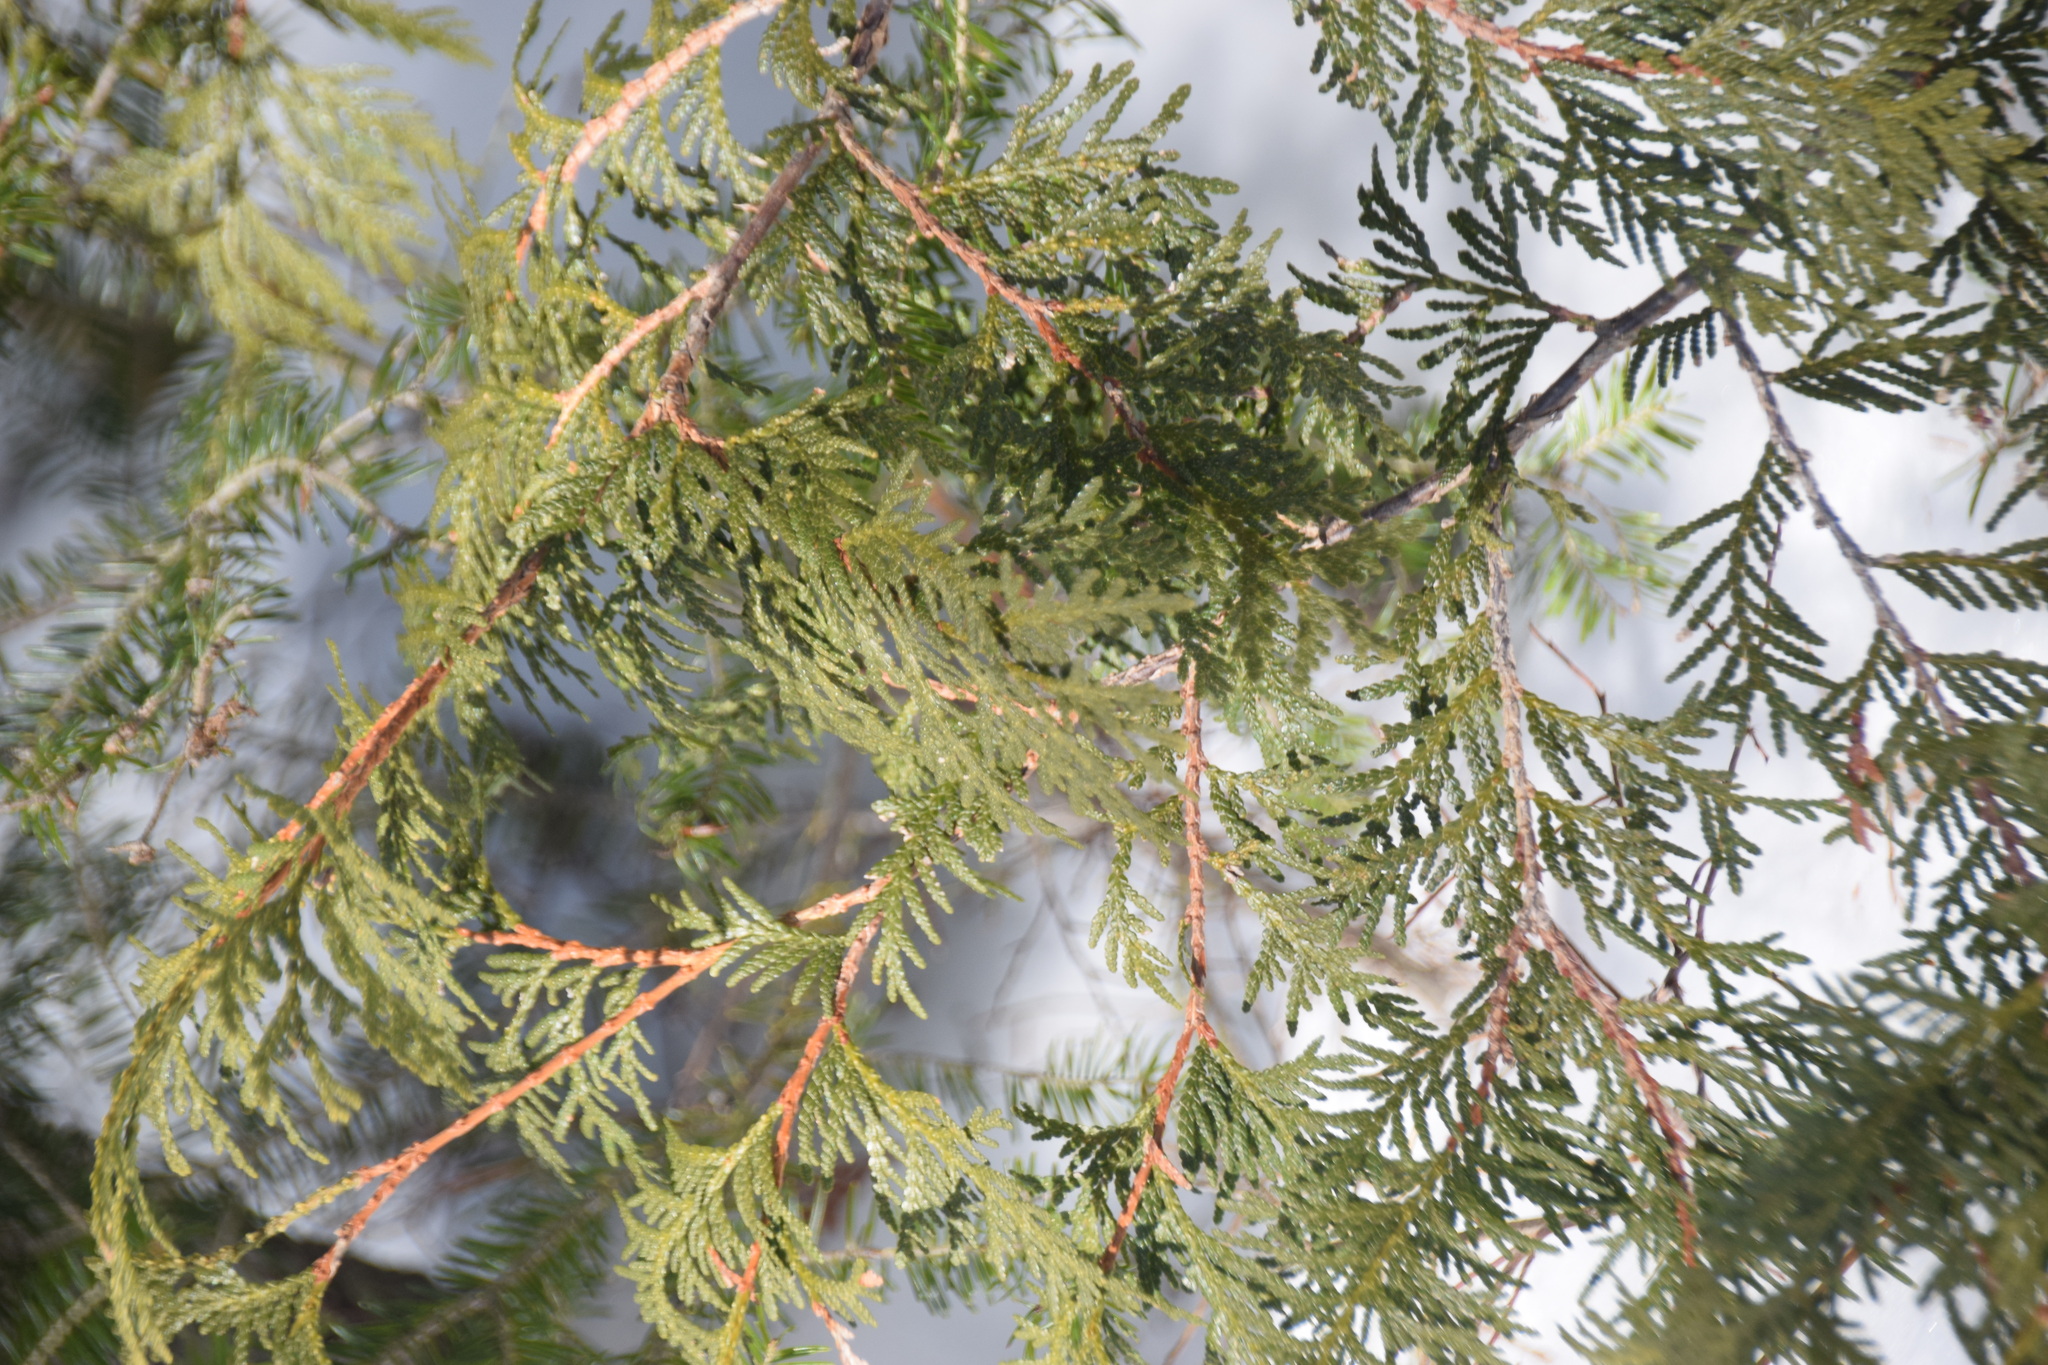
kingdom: Plantae
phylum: Tracheophyta
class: Pinopsida
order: Pinales
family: Cupressaceae
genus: Thuja
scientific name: Thuja occidentalis
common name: Northern white-cedar
